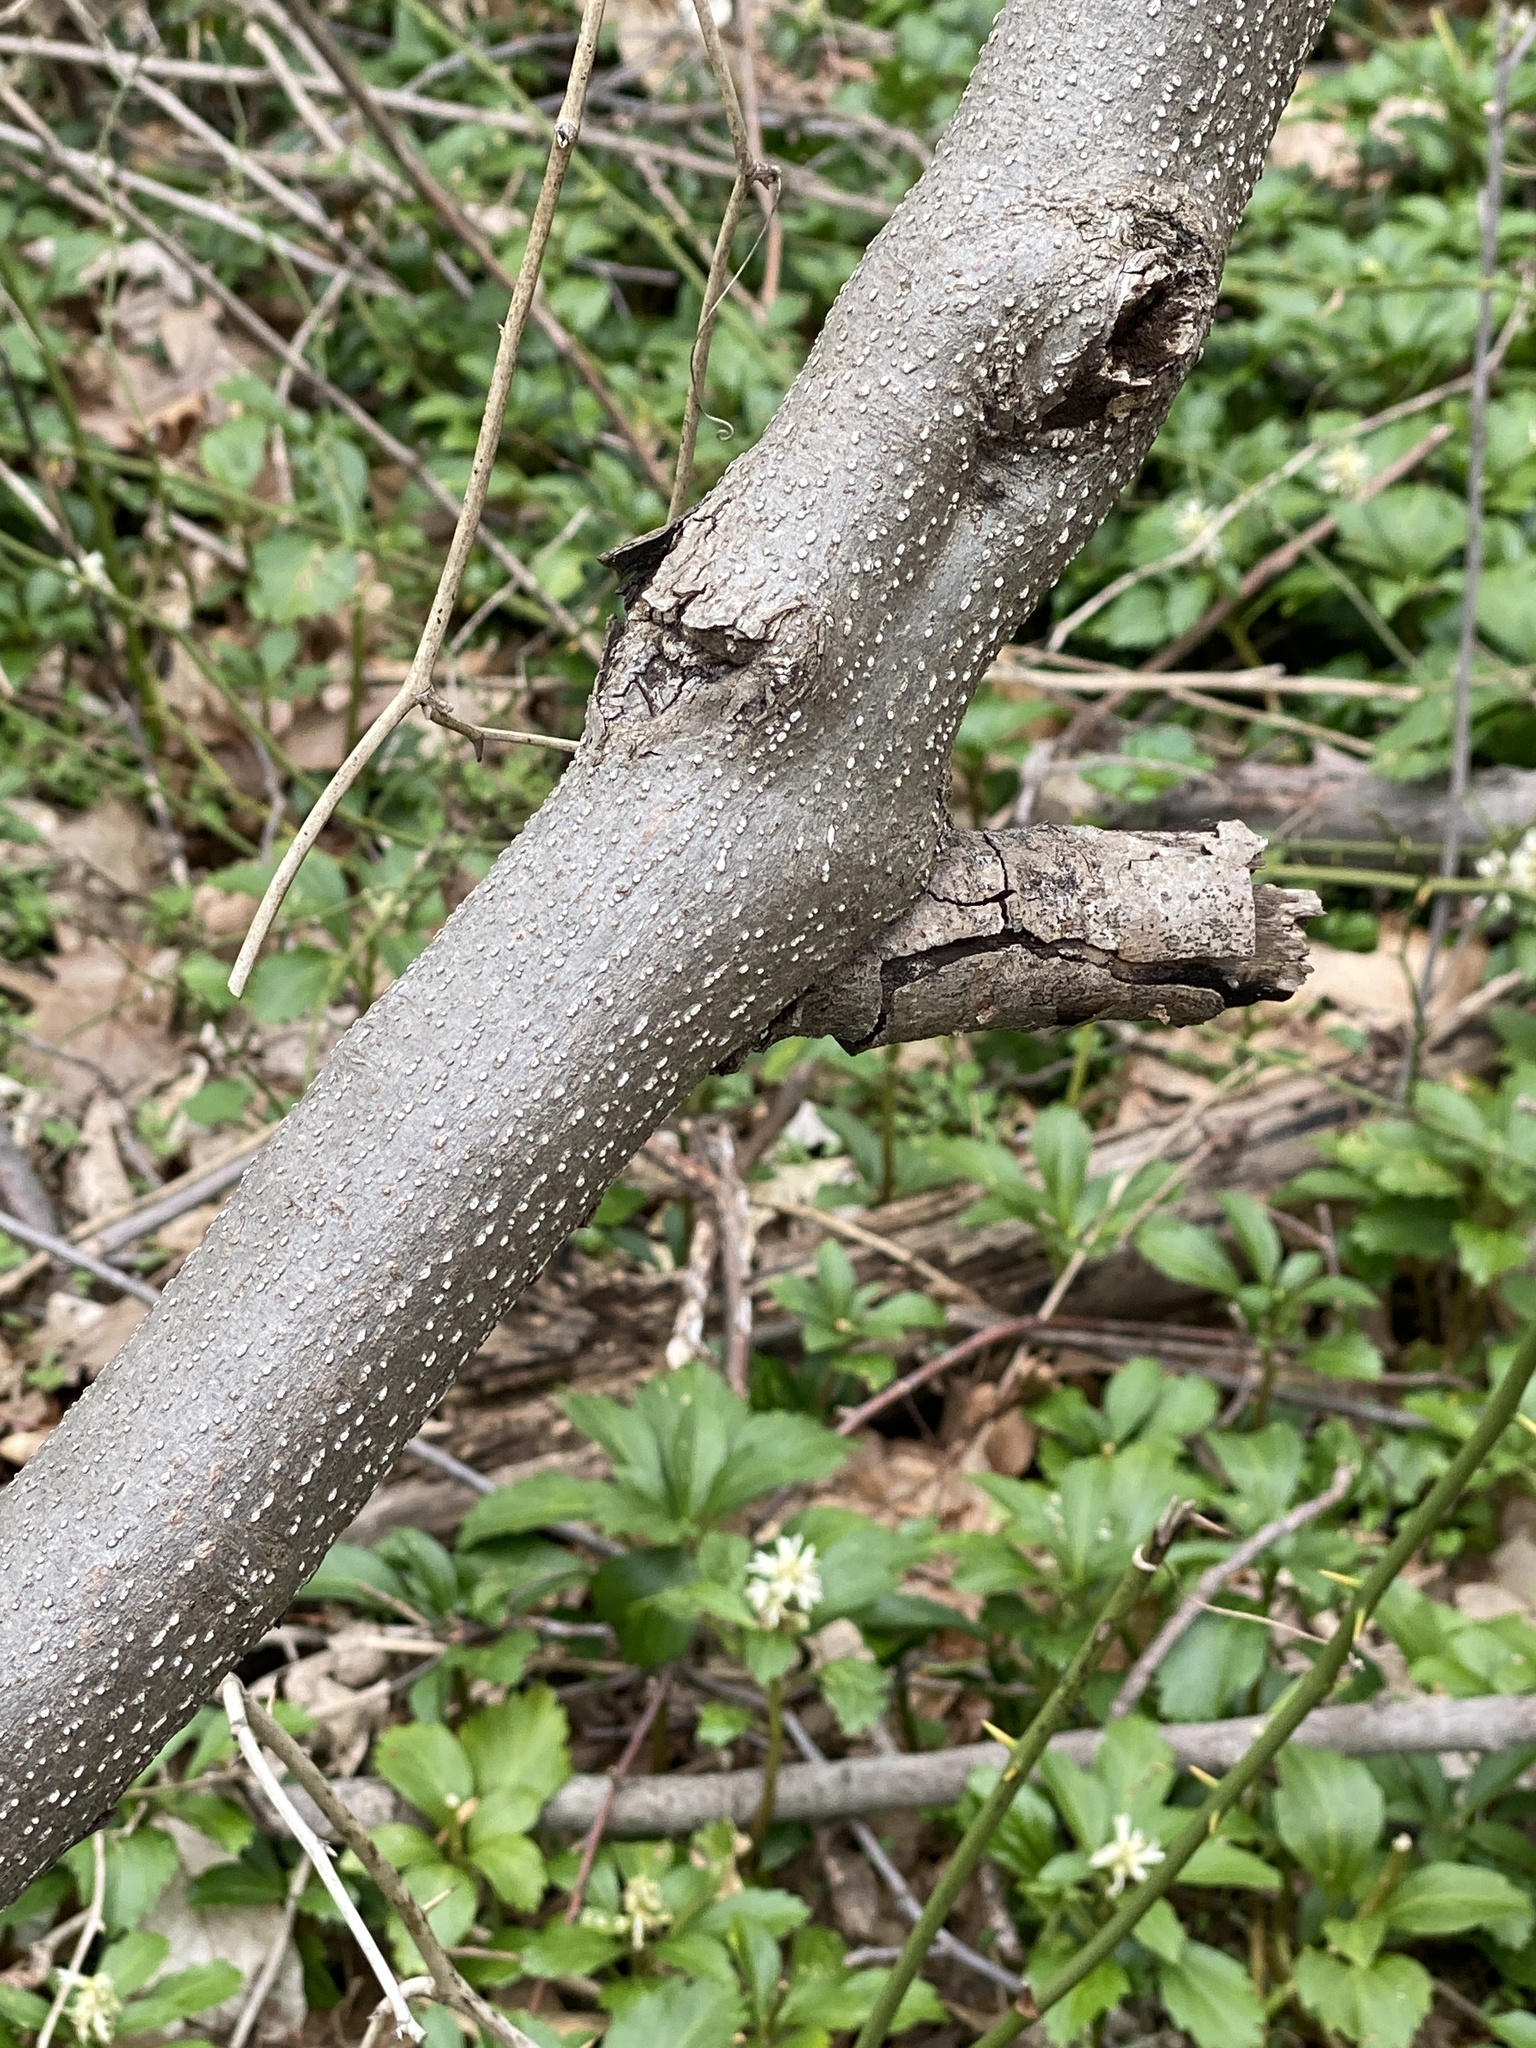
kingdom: Plantae
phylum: Tracheophyta
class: Magnoliopsida
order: Laurales
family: Lauraceae
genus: Lindera
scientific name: Lindera benzoin
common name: Spicebush
